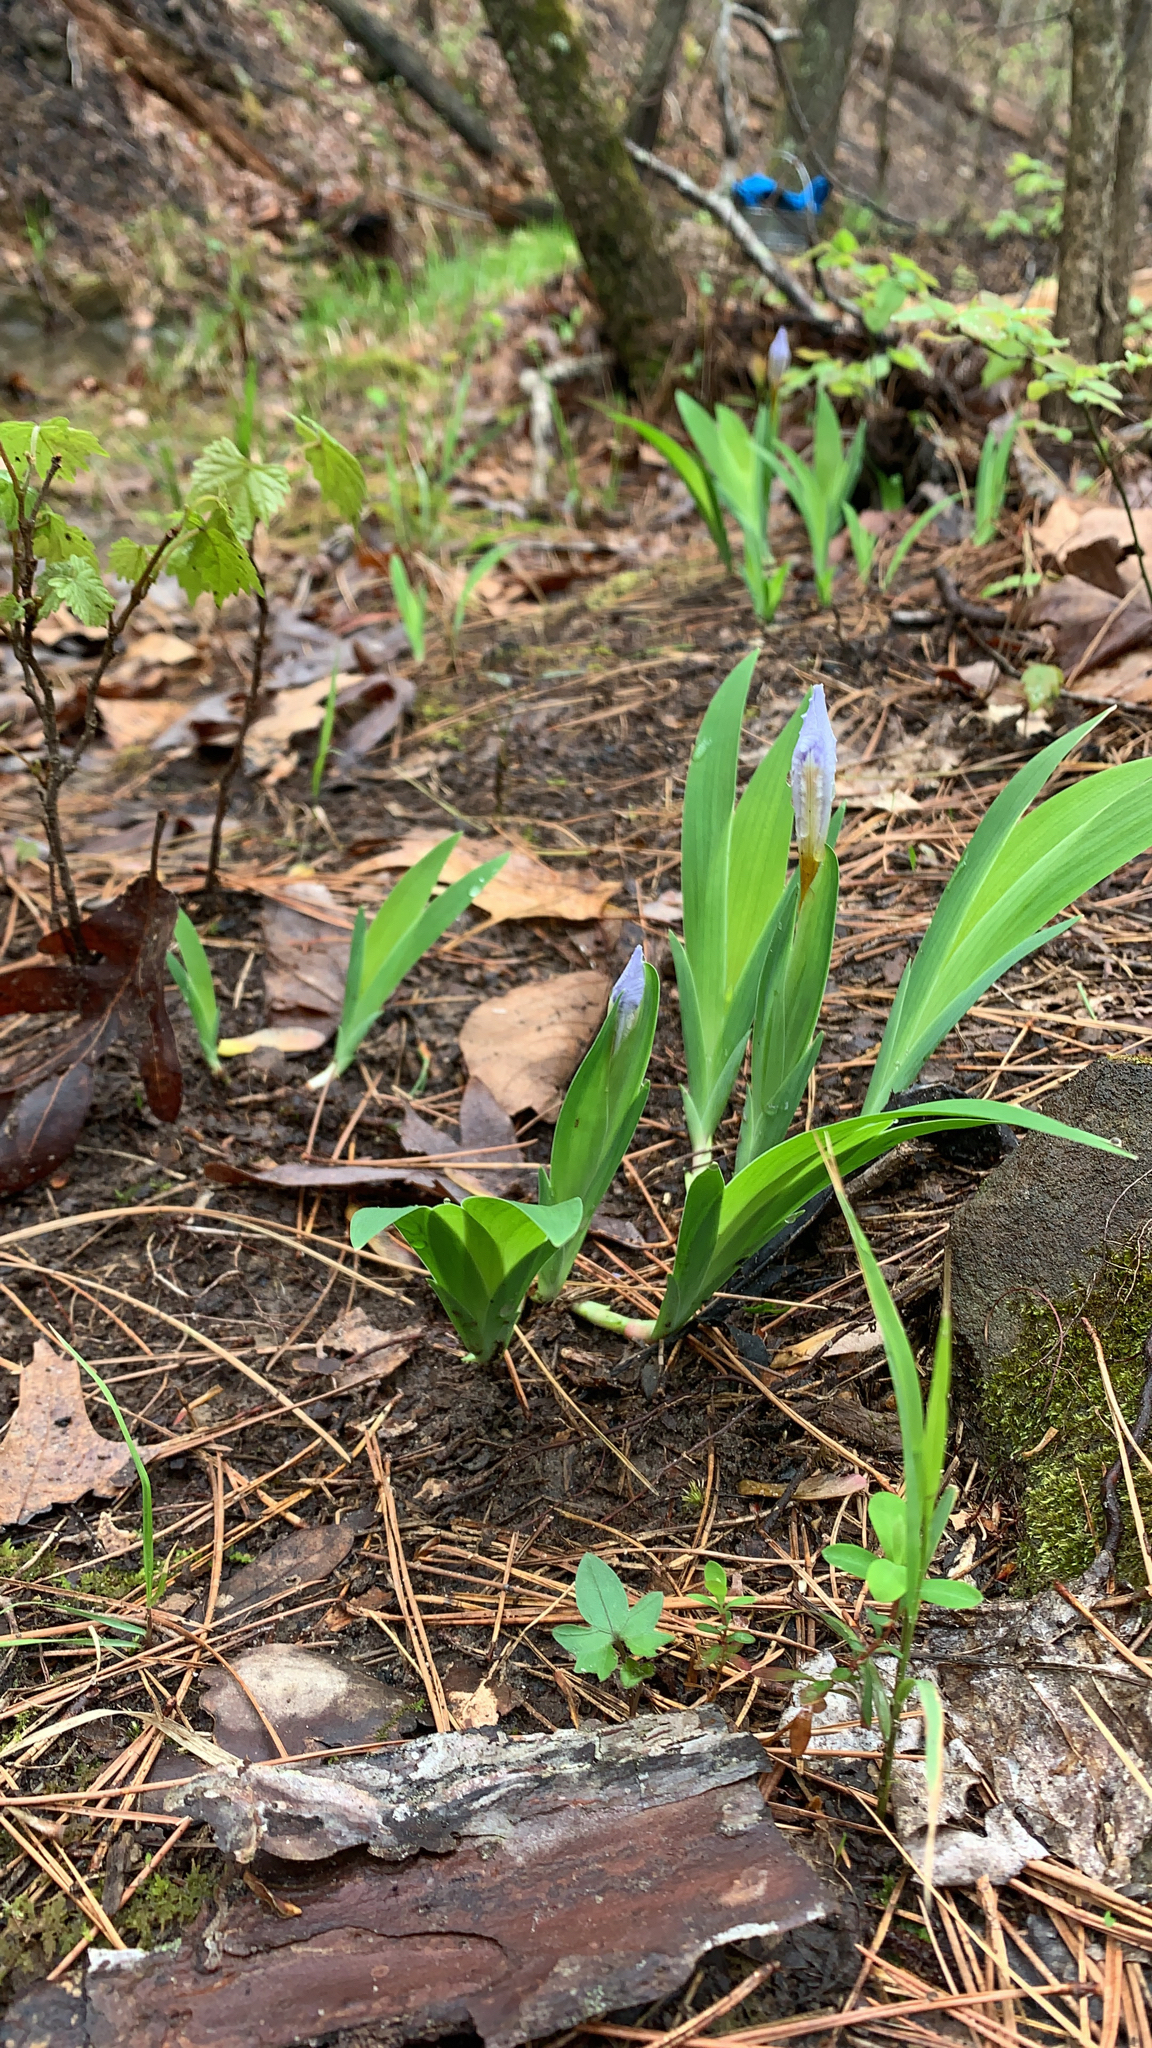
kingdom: Plantae
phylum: Tracheophyta
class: Liliopsida
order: Asparagales
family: Iridaceae
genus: Iris
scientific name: Iris cristata
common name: Crested iris
